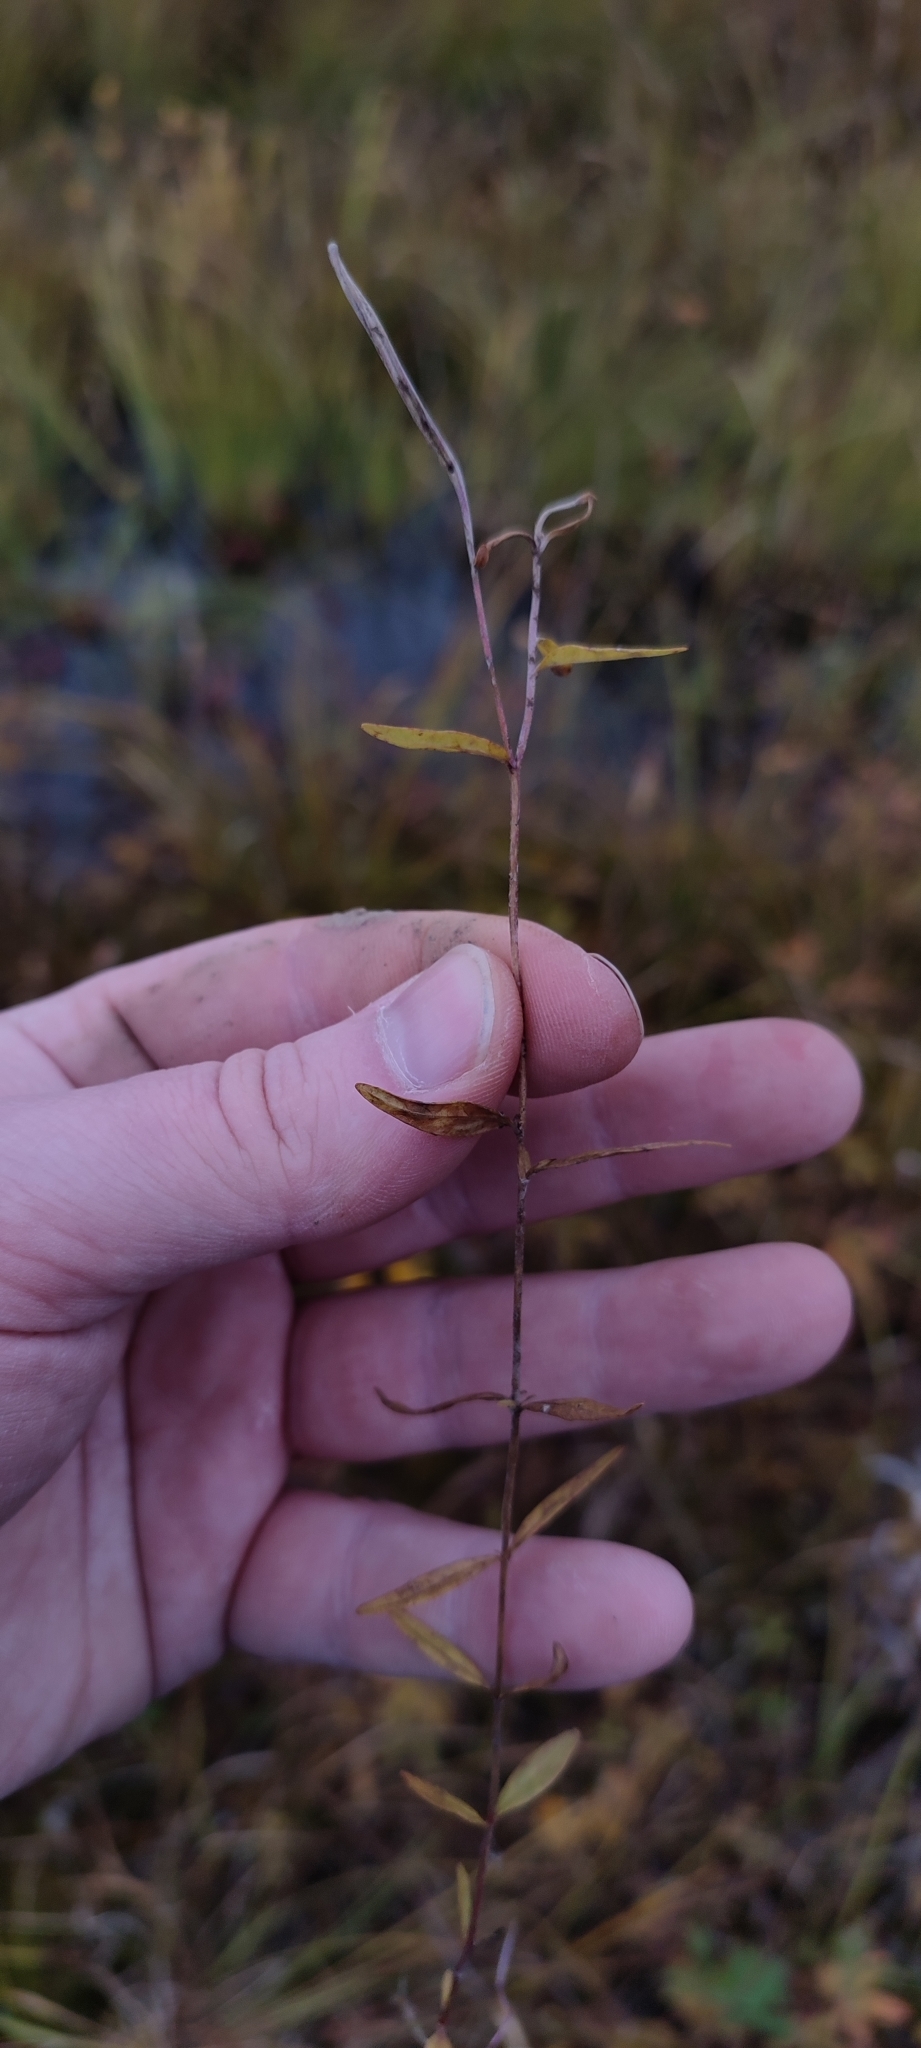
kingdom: Plantae
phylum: Tracheophyta
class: Magnoliopsida
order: Myrtales
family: Onagraceae
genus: Epilobium
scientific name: Epilobium palustre
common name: Marsh willowherb
